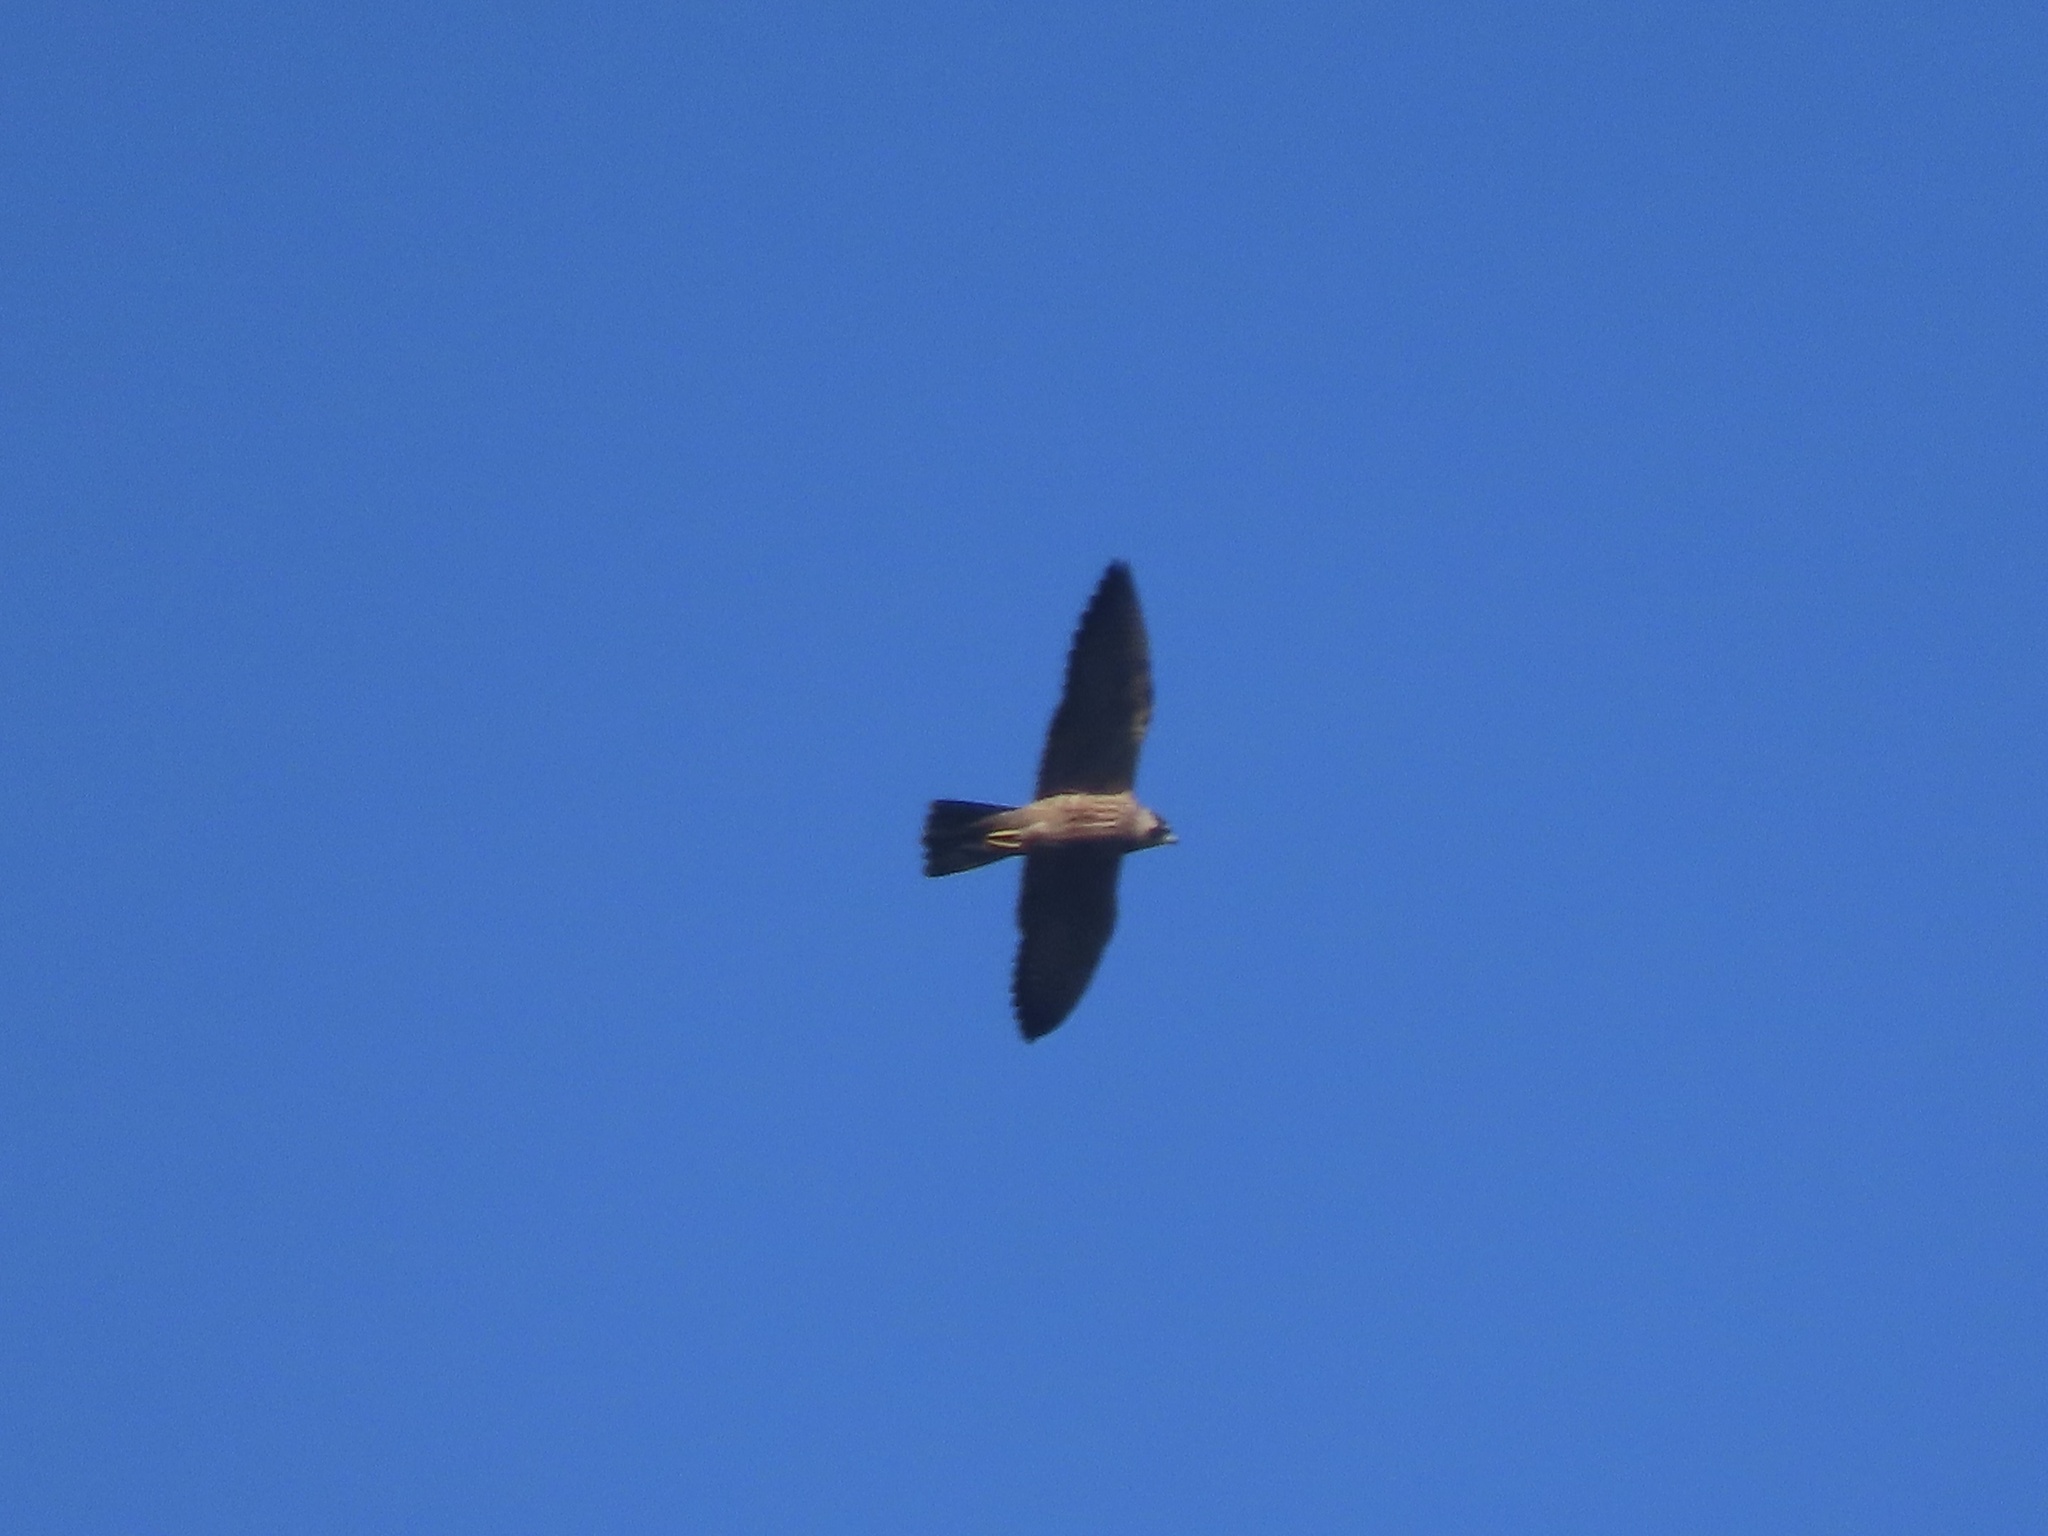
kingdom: Animalia
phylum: Chordata
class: Aves
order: Falconiformes
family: Falconidae
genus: Falco
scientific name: Falco peregrinus
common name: Peregrine falcon
